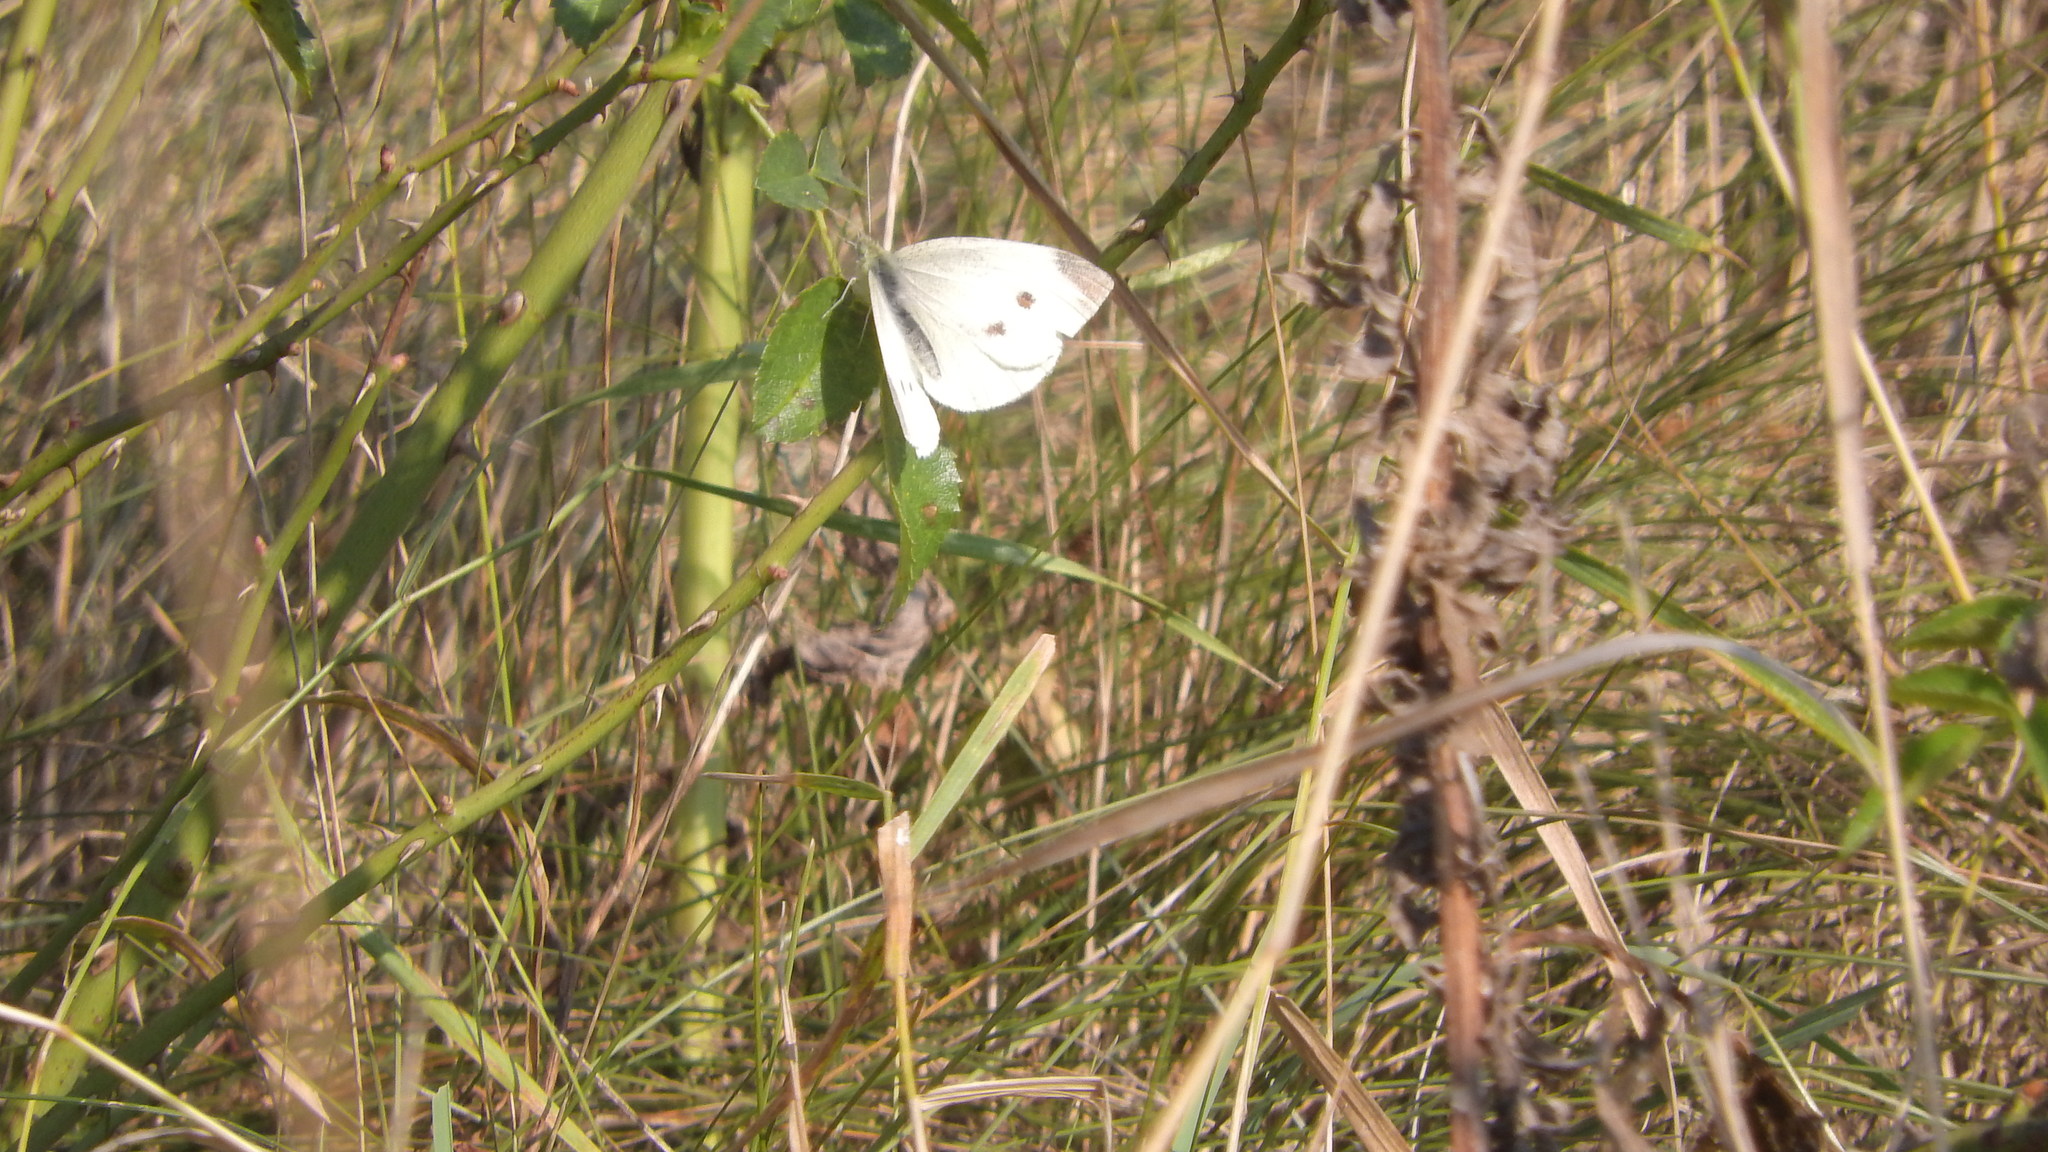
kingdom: Animalia
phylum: Arthropoda
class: Insecta
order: Lepidoptera
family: Pieridae
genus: Pieris
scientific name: Pieris rapae
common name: Small white
